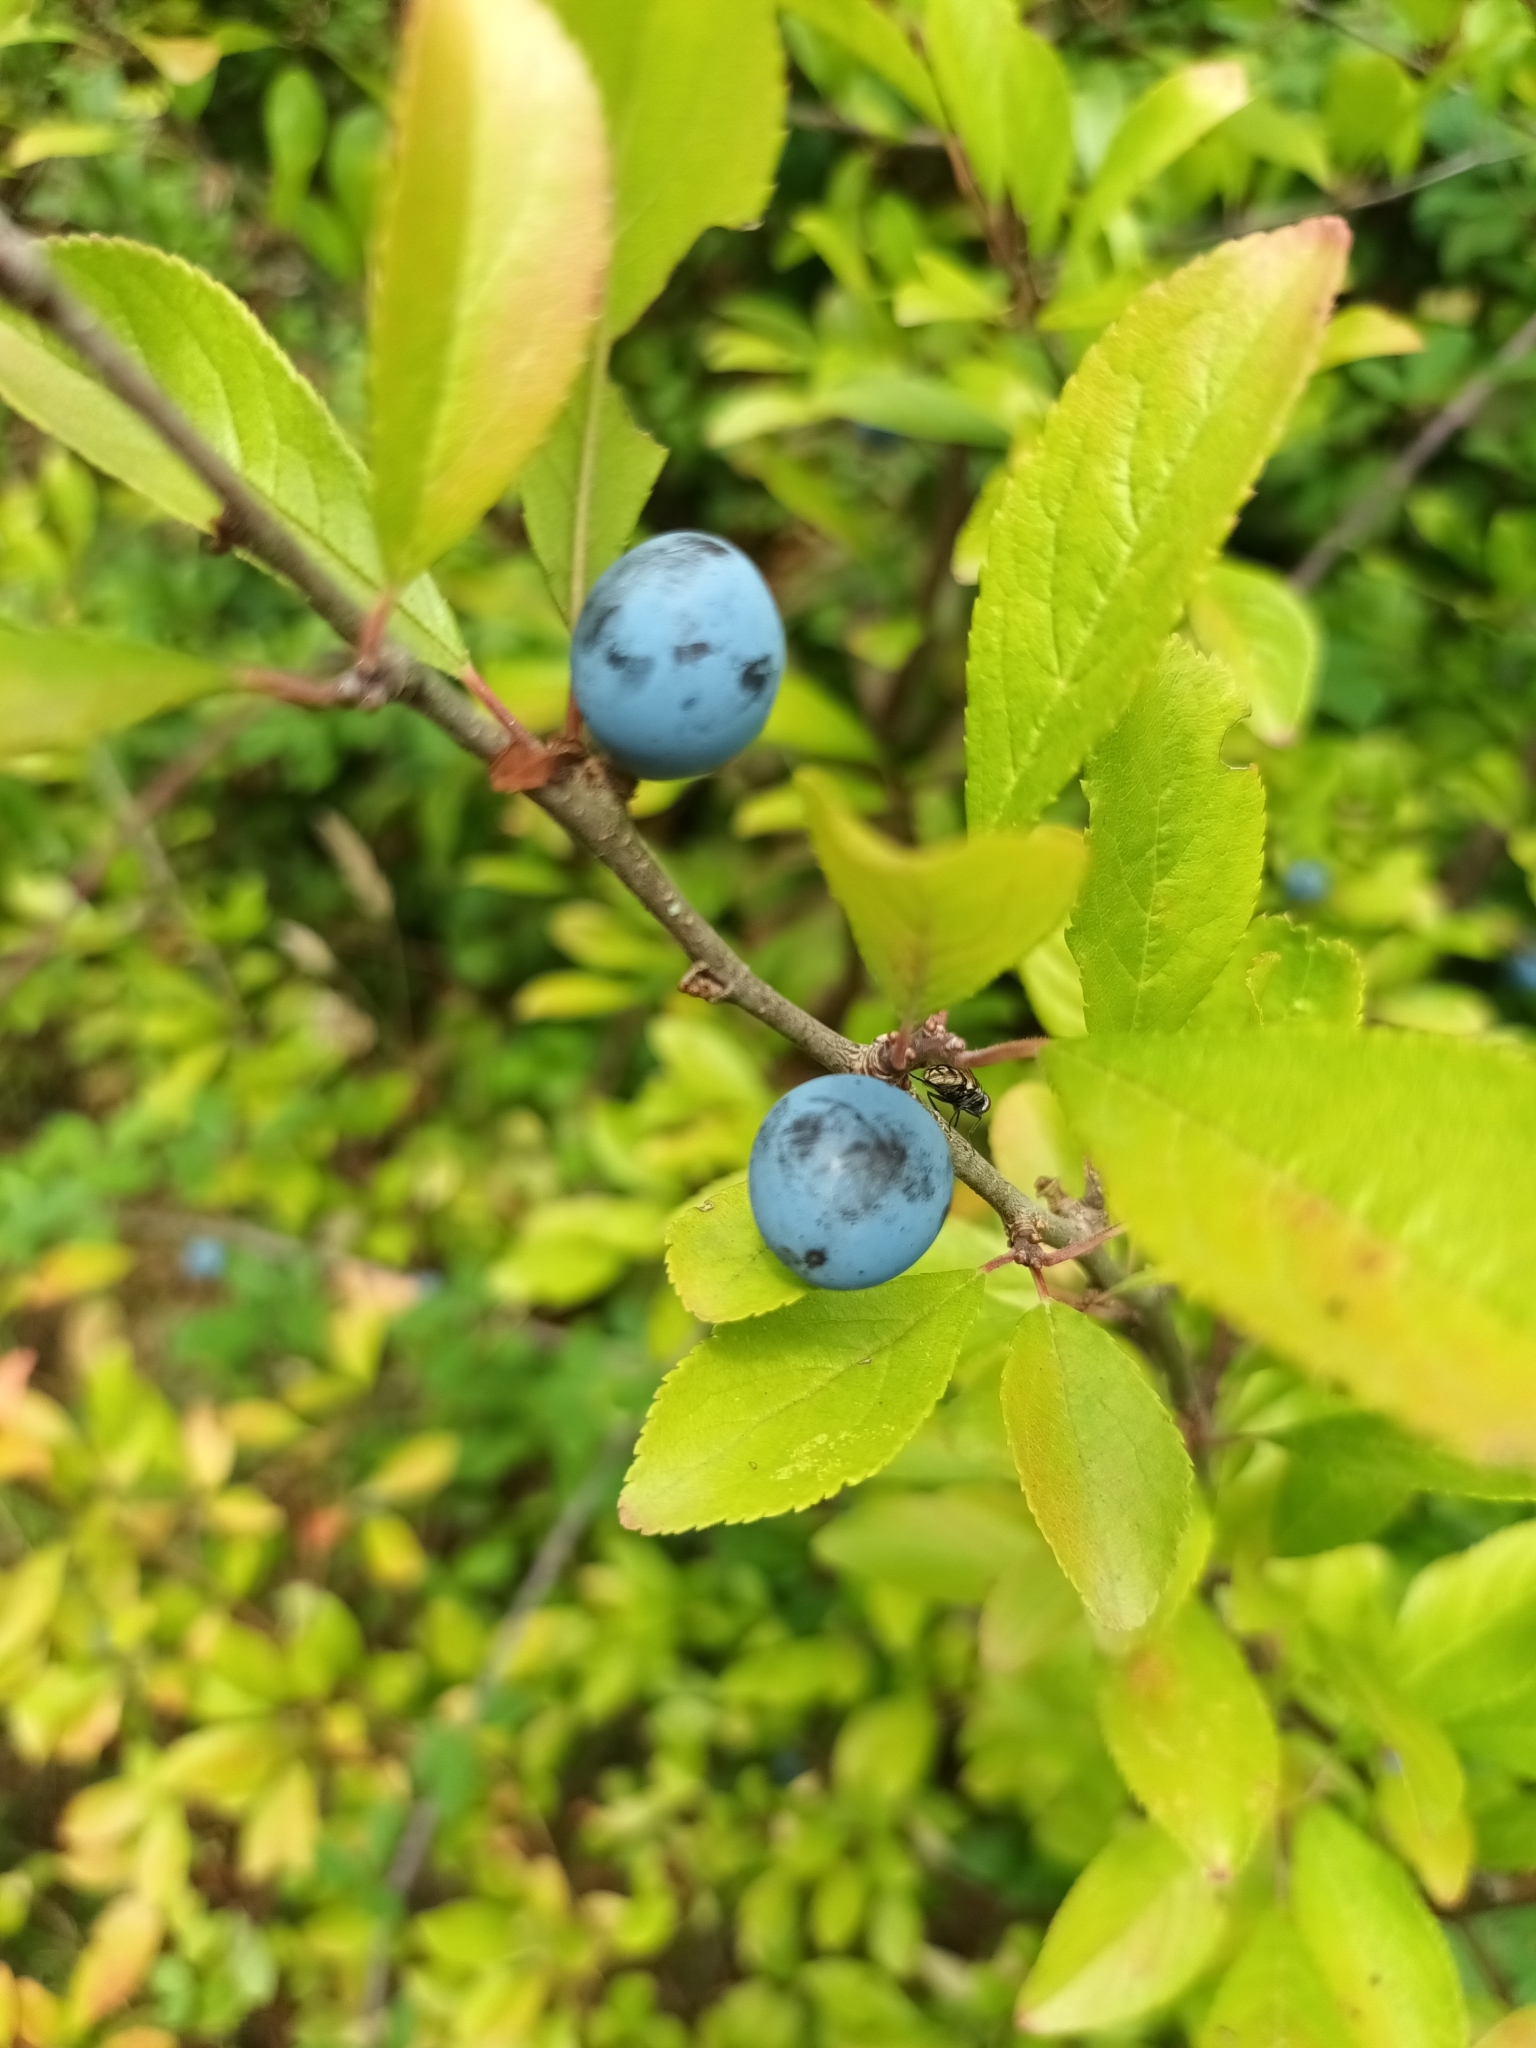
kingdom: Plantae
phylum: Tracheophyta
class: Magnoliopsida
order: Rosales
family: Rosaceae
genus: Prunus
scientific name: Prunus spinosa
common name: Blackthorn
